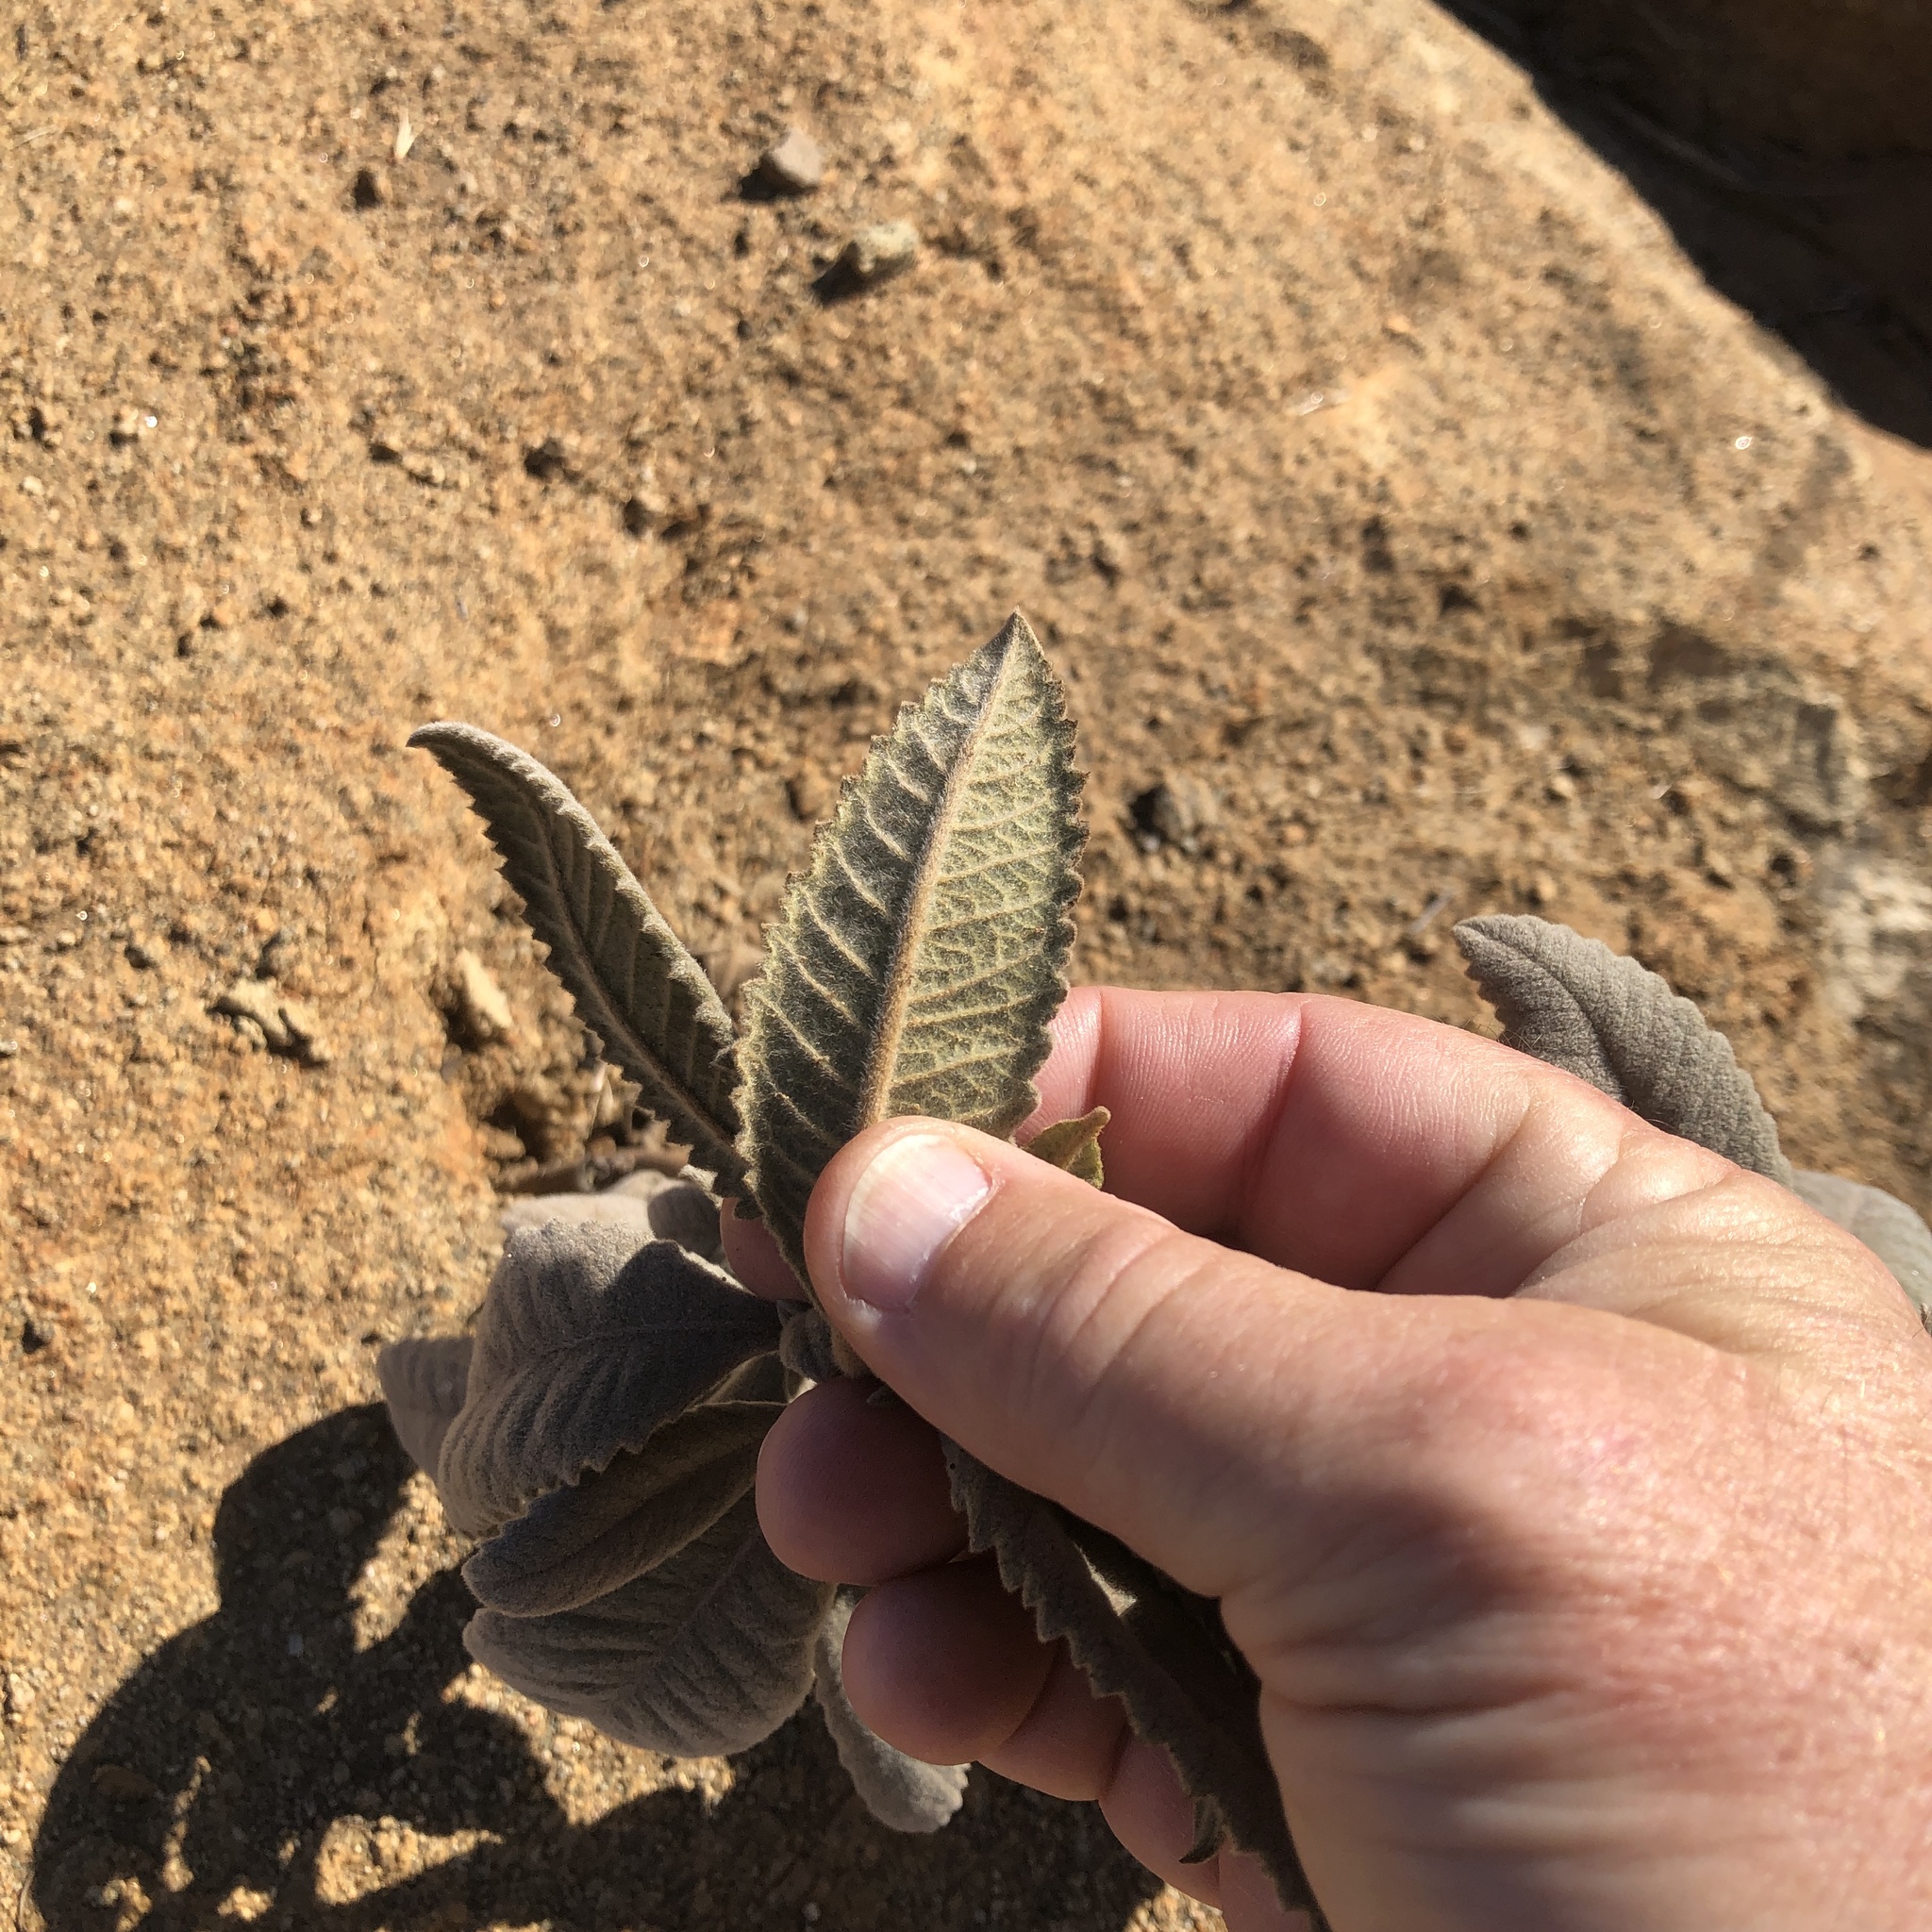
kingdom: Plantae
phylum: Tracheophyta
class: Magnoliopsida
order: Boraginales
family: Namaceae
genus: Eriodictyon
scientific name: Eriodictyon crassifolium
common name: Thick-leaf yerba-santa
